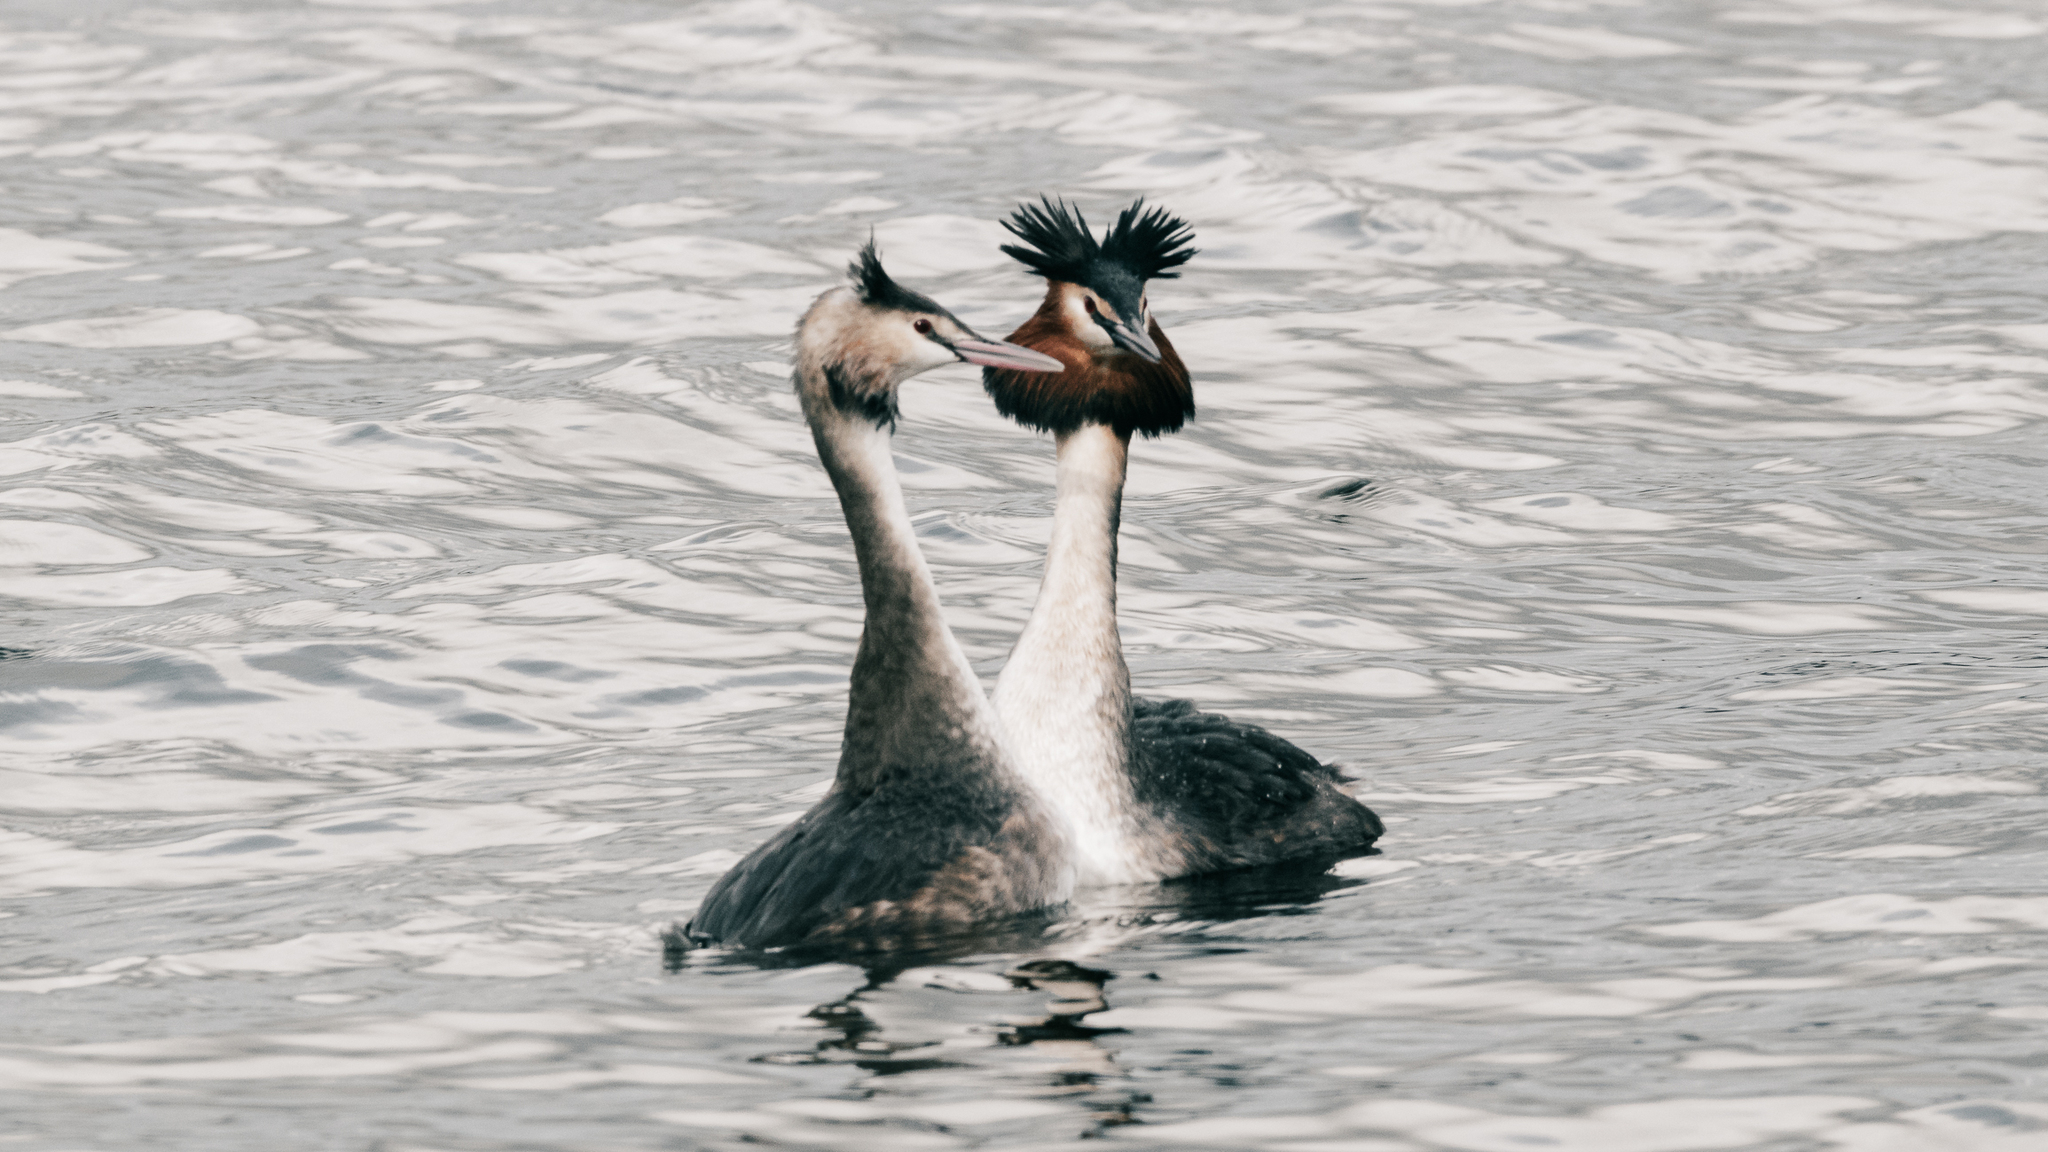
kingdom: Animalia
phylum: Chordata
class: Aves
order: Podicipediformes
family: Podicipedidae
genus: Podiceps
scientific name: Podiceps cristatus
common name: Great crested grebe
